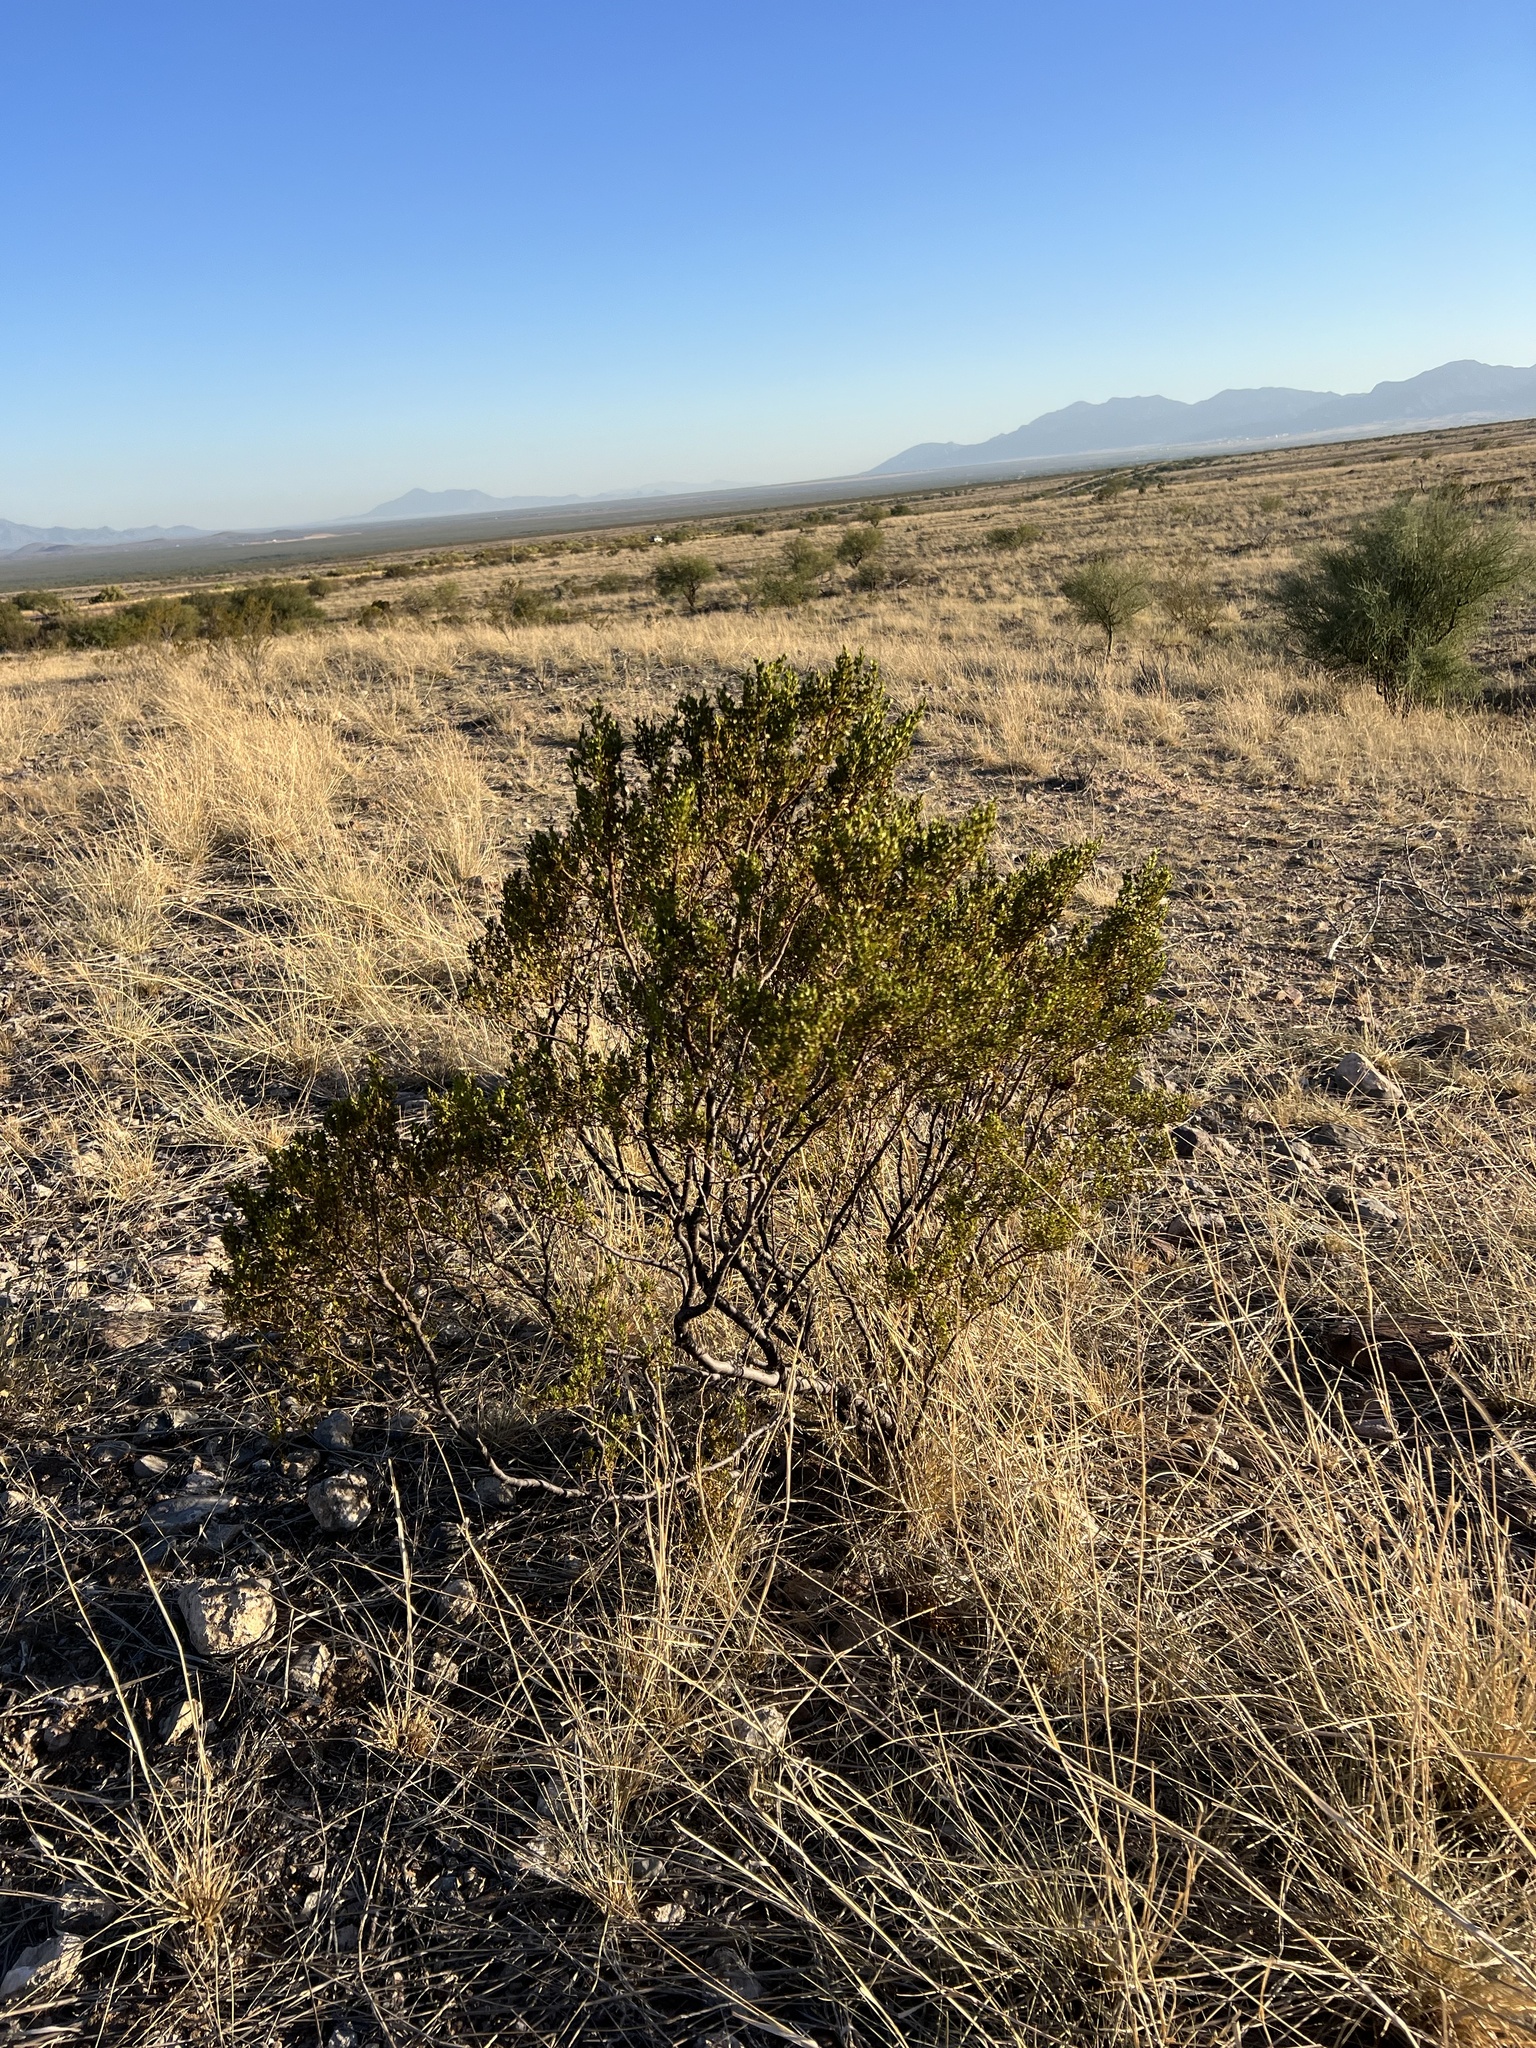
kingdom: Plantae
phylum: Tracheophyta
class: Magnoliopsida
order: Zygophyllales
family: Zygophyllaceae
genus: Larrea
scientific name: Larrea tridentata
